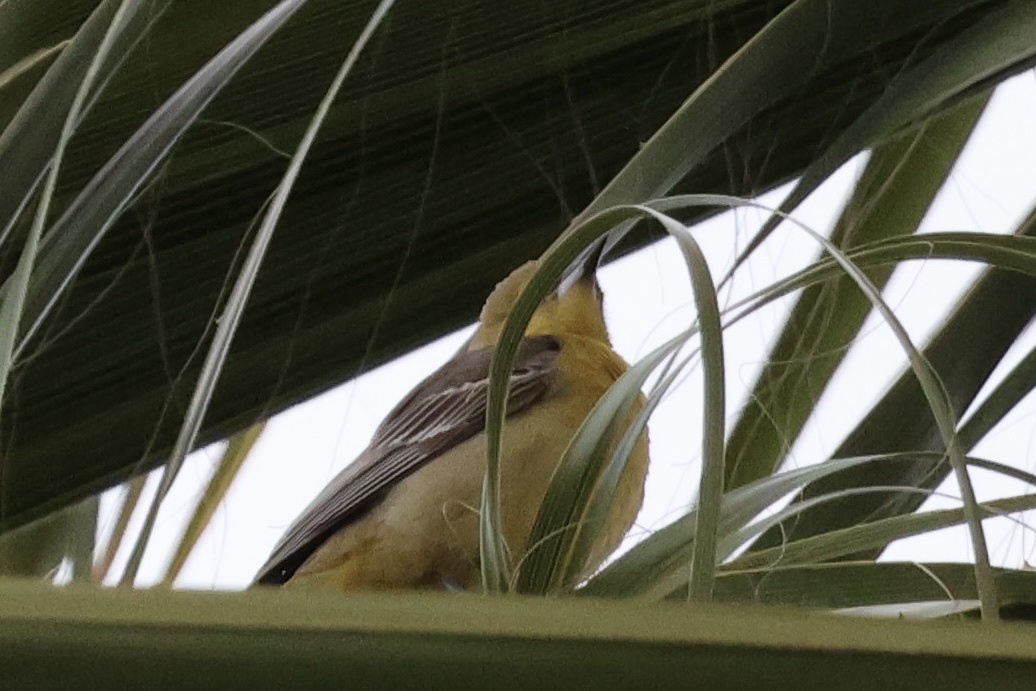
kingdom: Animalia
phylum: Chordata
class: Aves
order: Passeriformes
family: Icteridae
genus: Icterus
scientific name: Icterus cucullatus
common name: Hooded oriole
